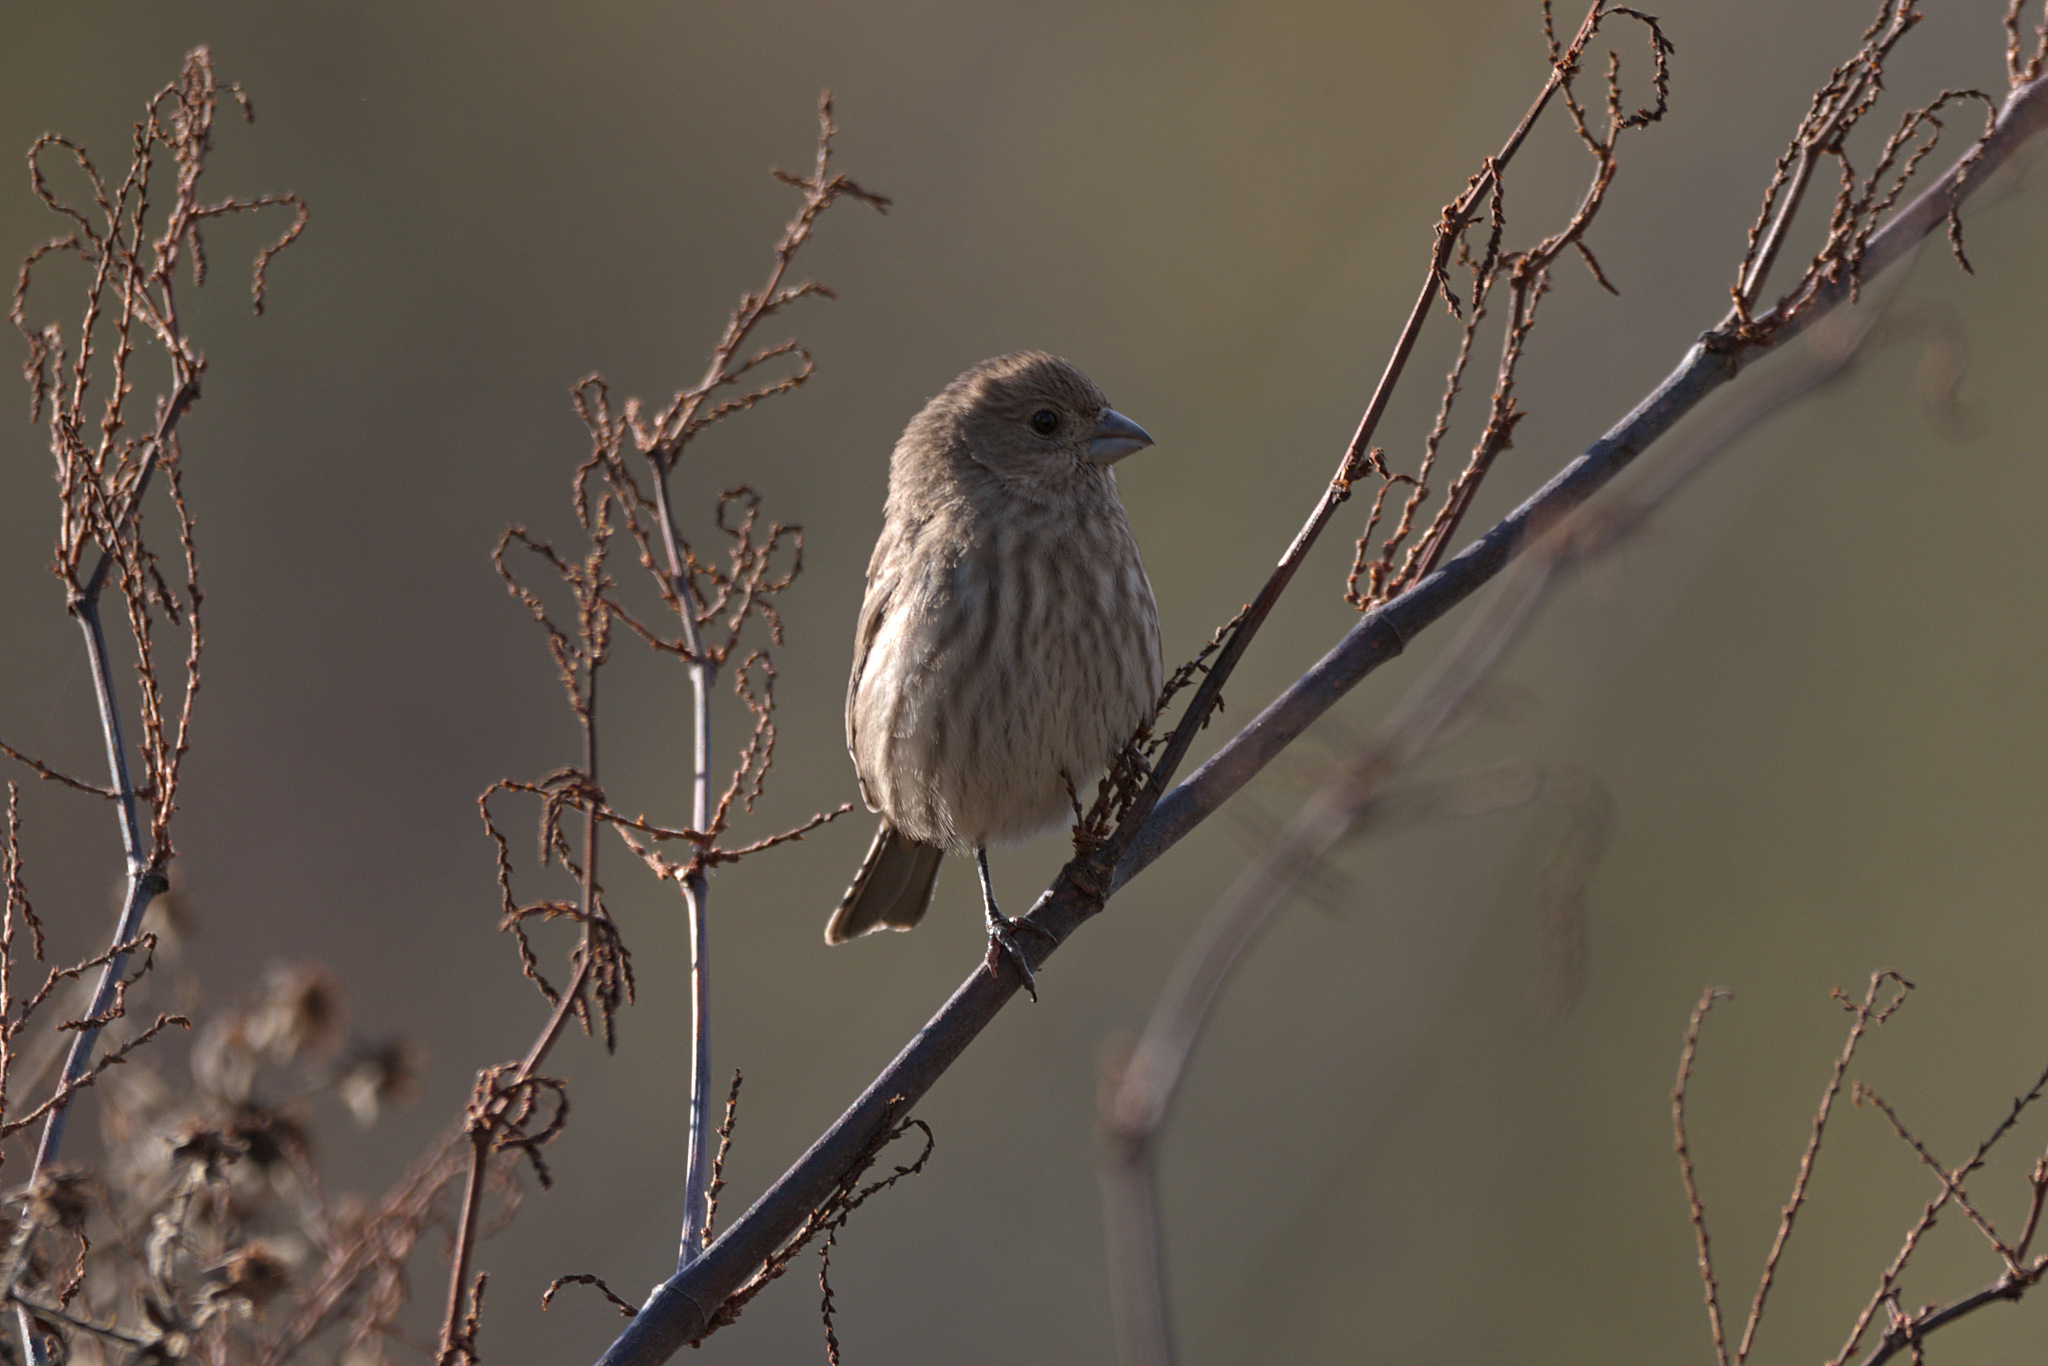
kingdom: Animalia
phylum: Chordata
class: Aves
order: Passeriformes
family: Fringillidae
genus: Haemorhous
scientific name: Haemorhous mexicanus
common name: House finch
